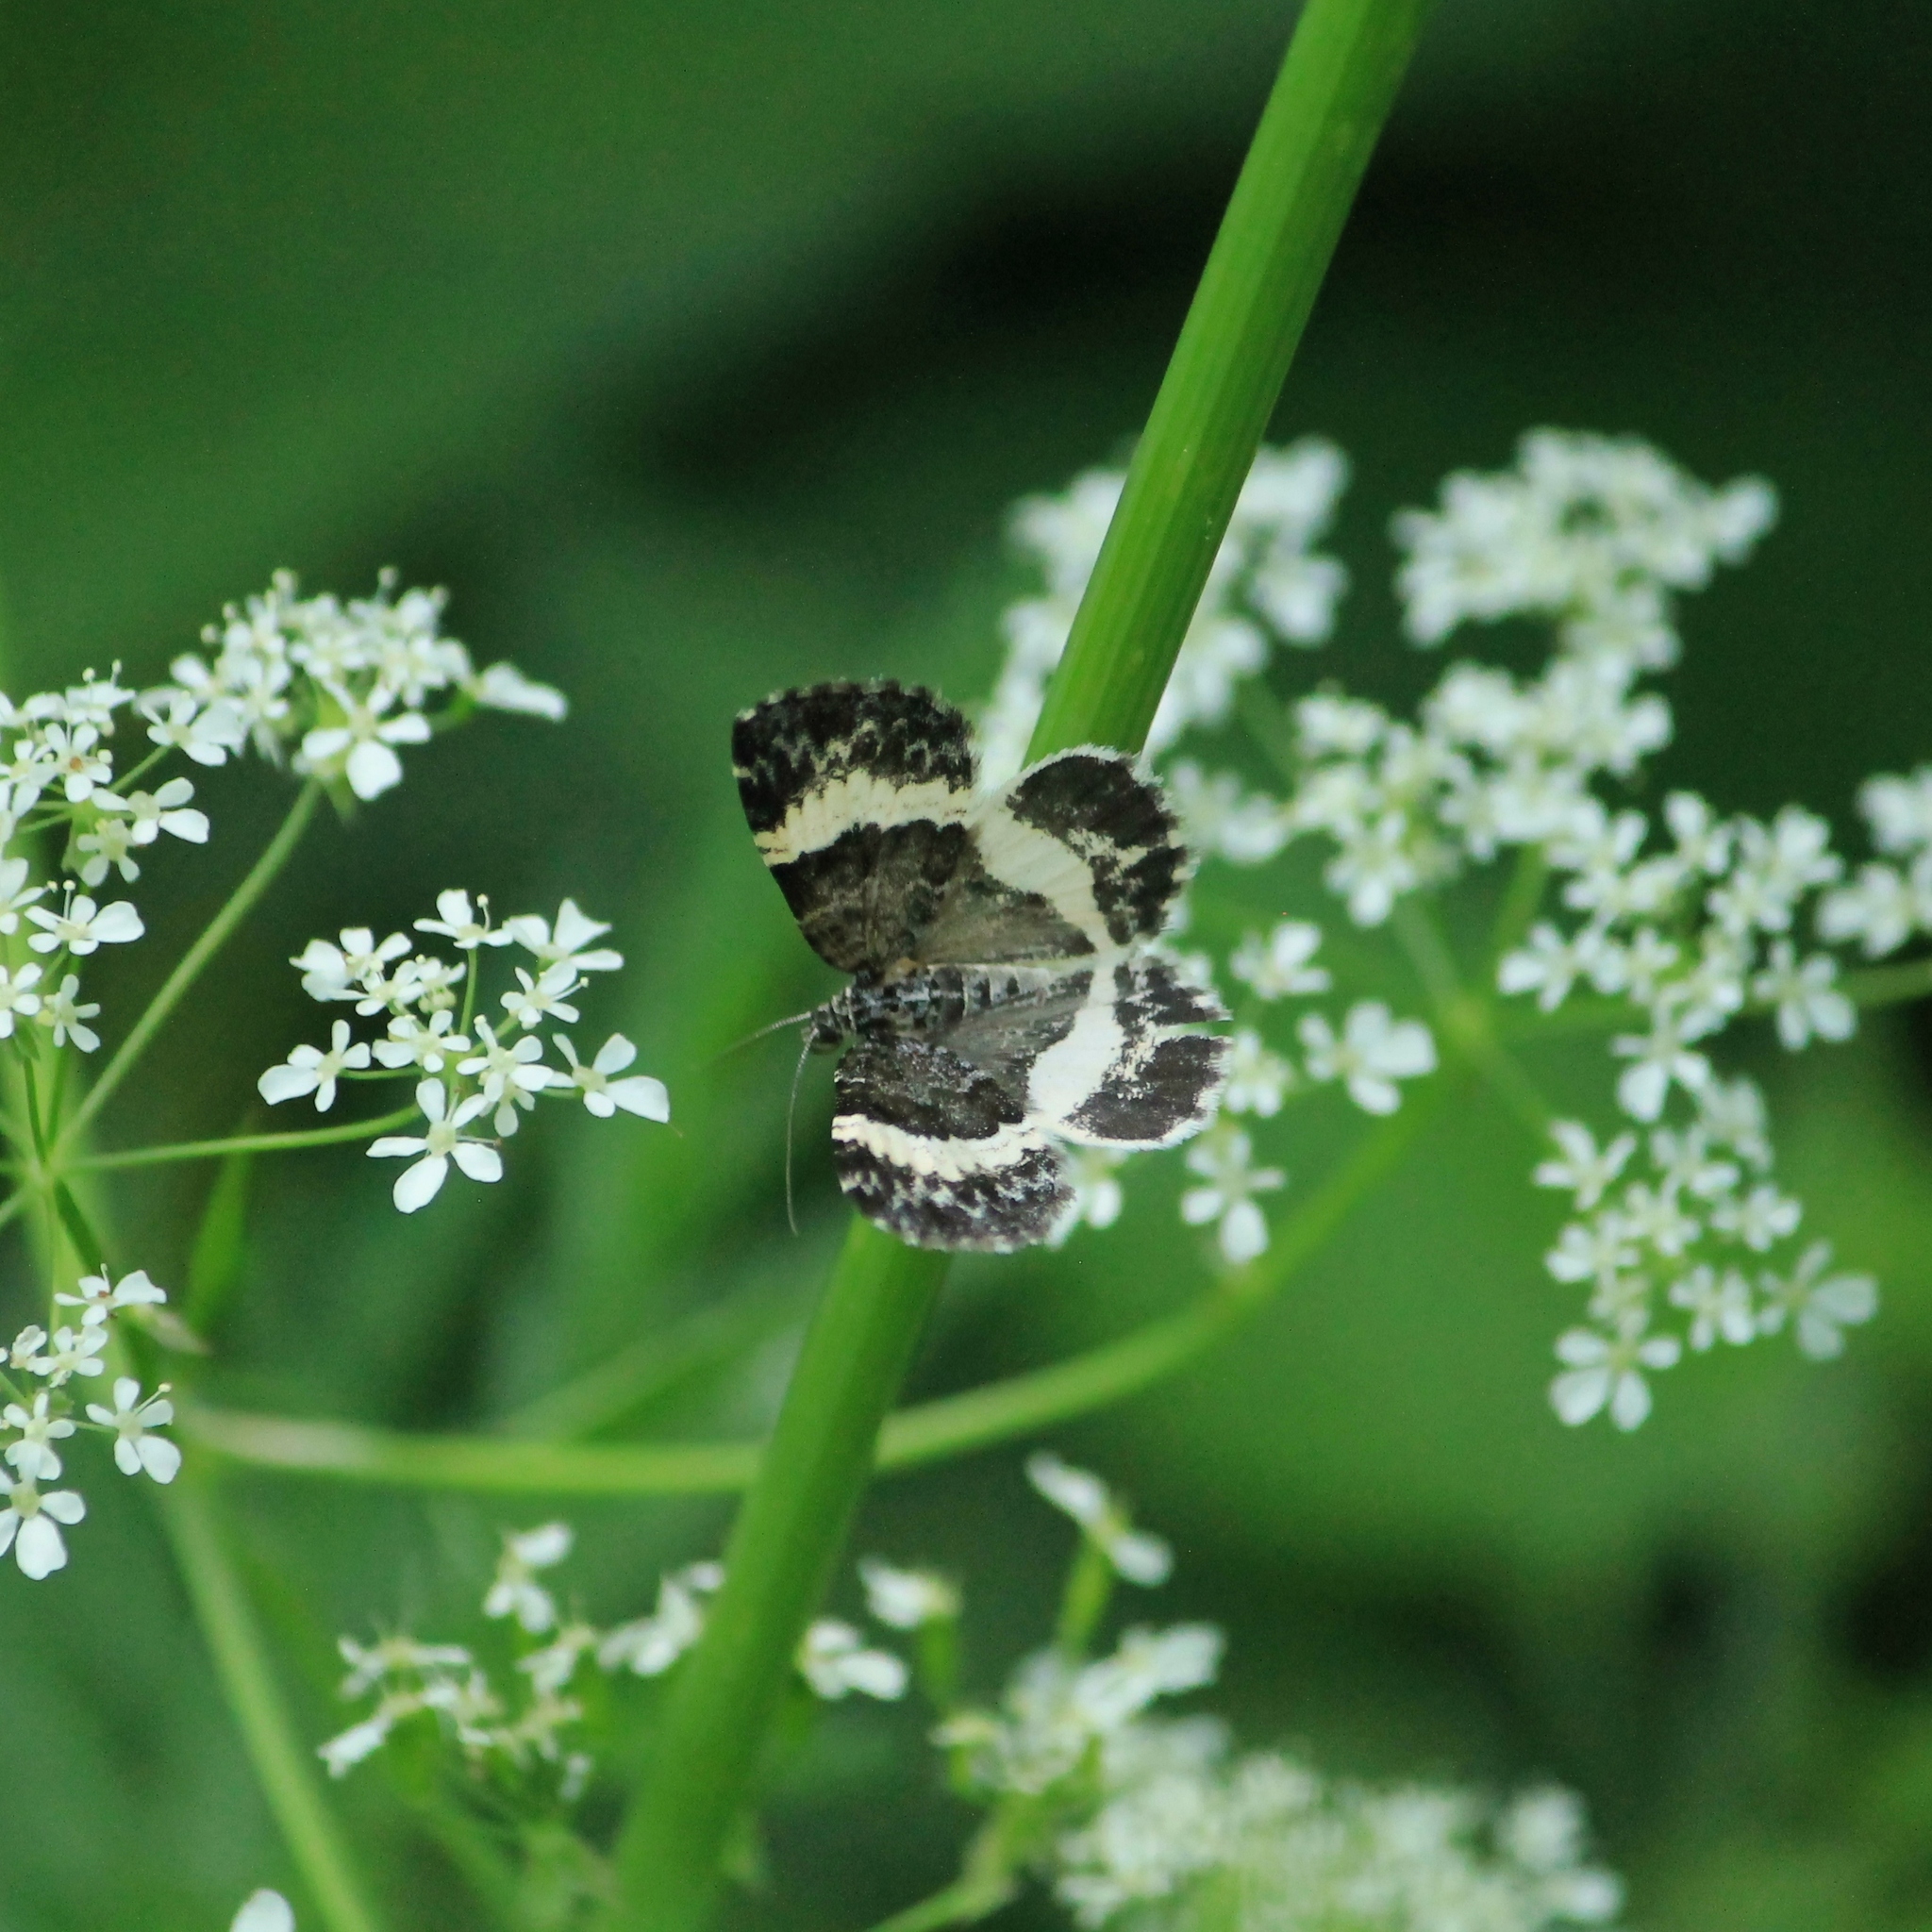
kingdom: Animalia
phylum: Arthropoda
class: Insecta
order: Lepidoptera
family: Geometridae
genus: Spargania
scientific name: Spargania luctuata
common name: White-banded carpet
